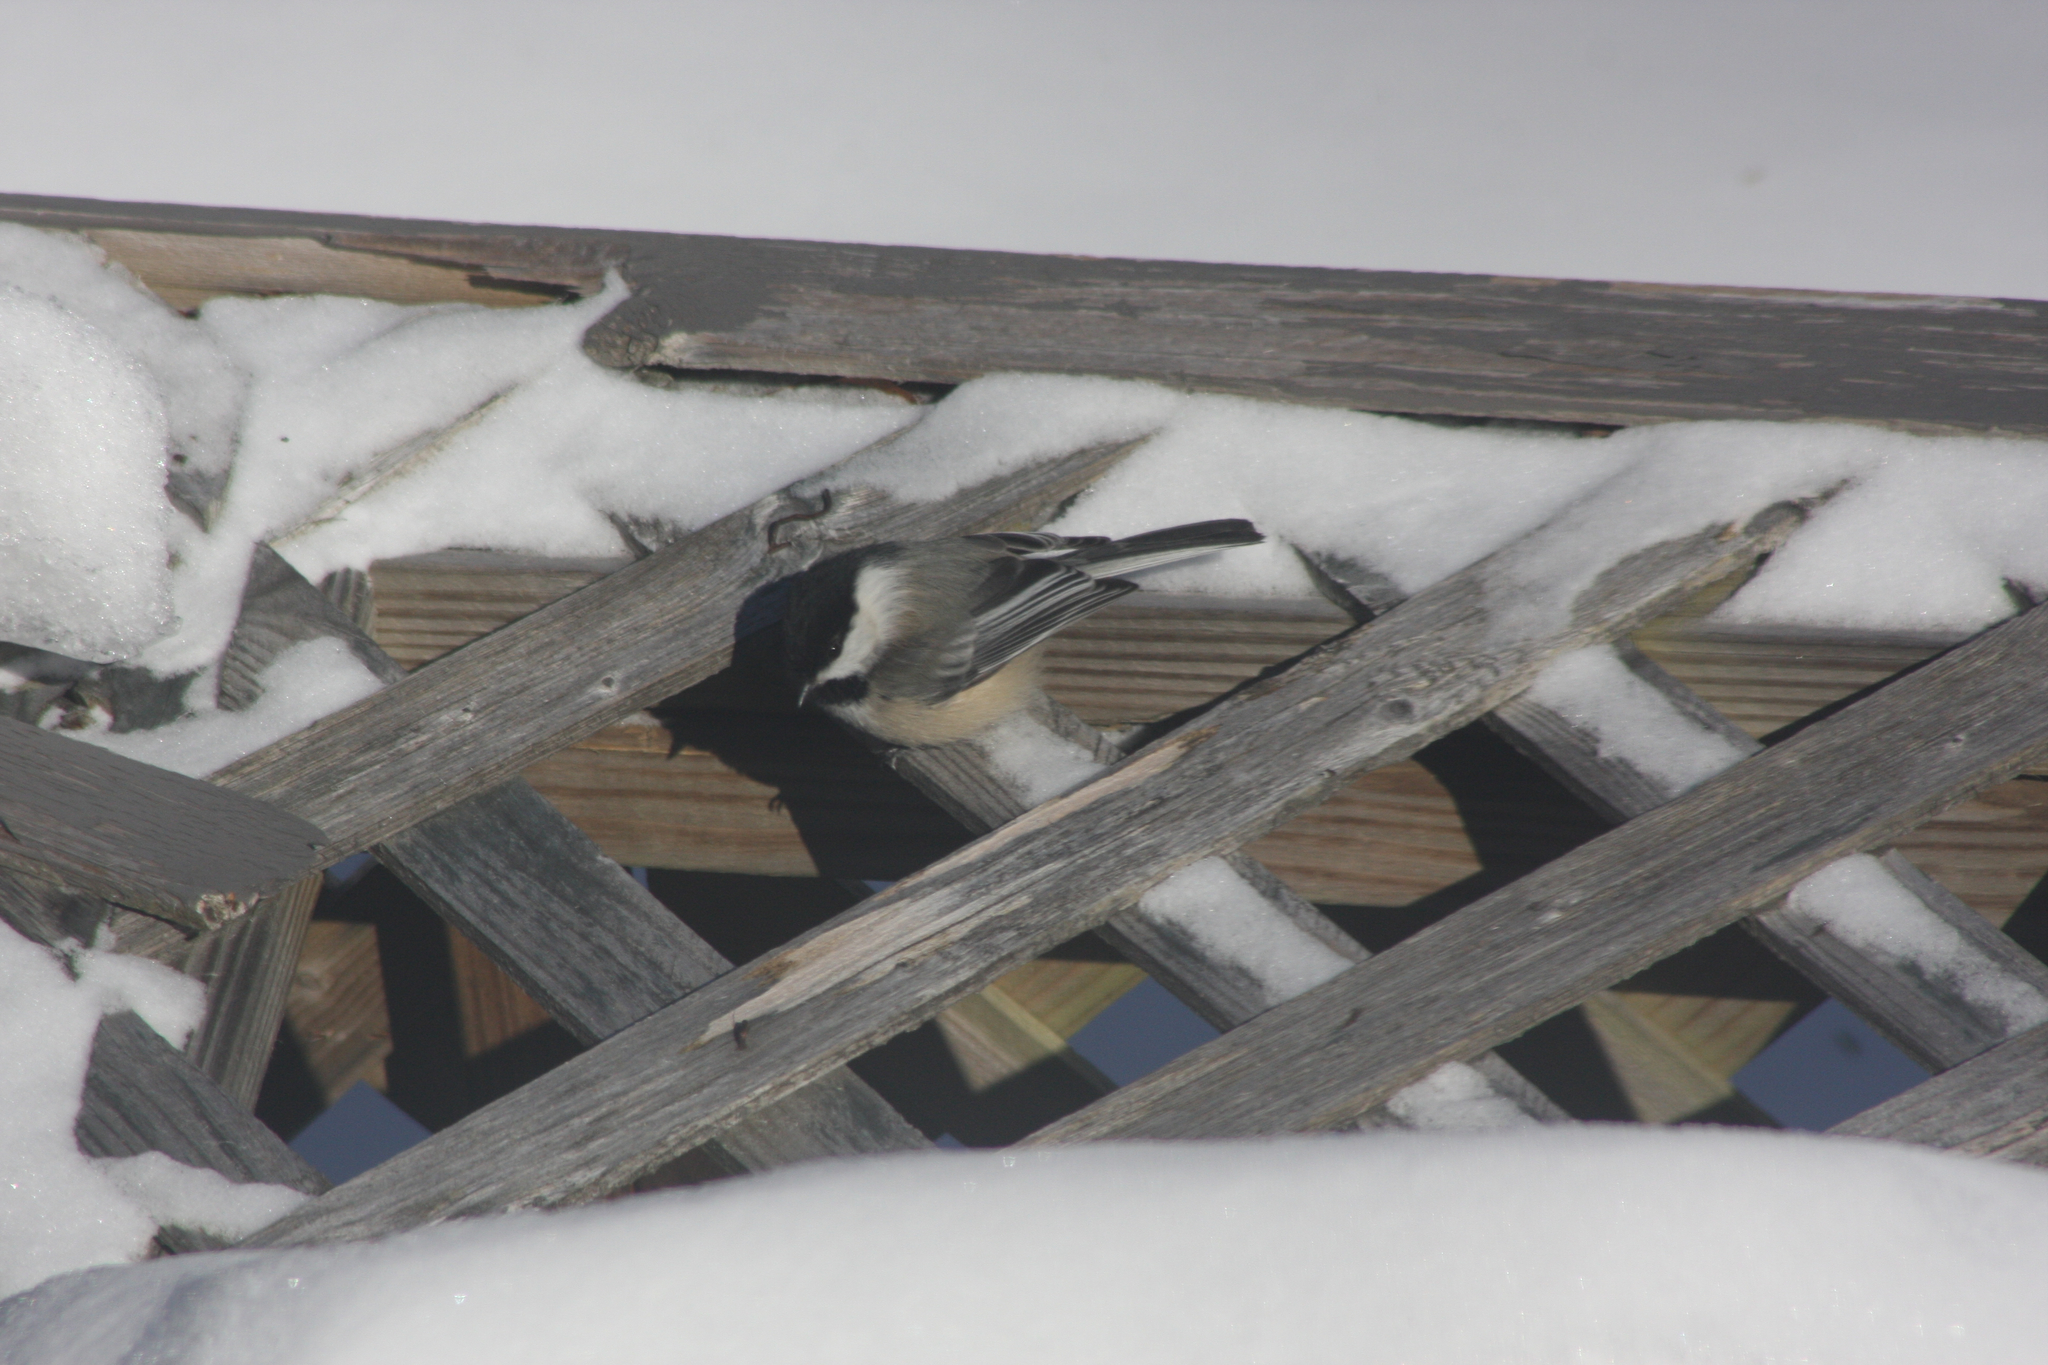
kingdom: Animalia
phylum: Chordata
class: Aves
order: Passeriformes
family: Paridae
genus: Poecile
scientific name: Poecile atricapillus
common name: Black-capped chickadee
